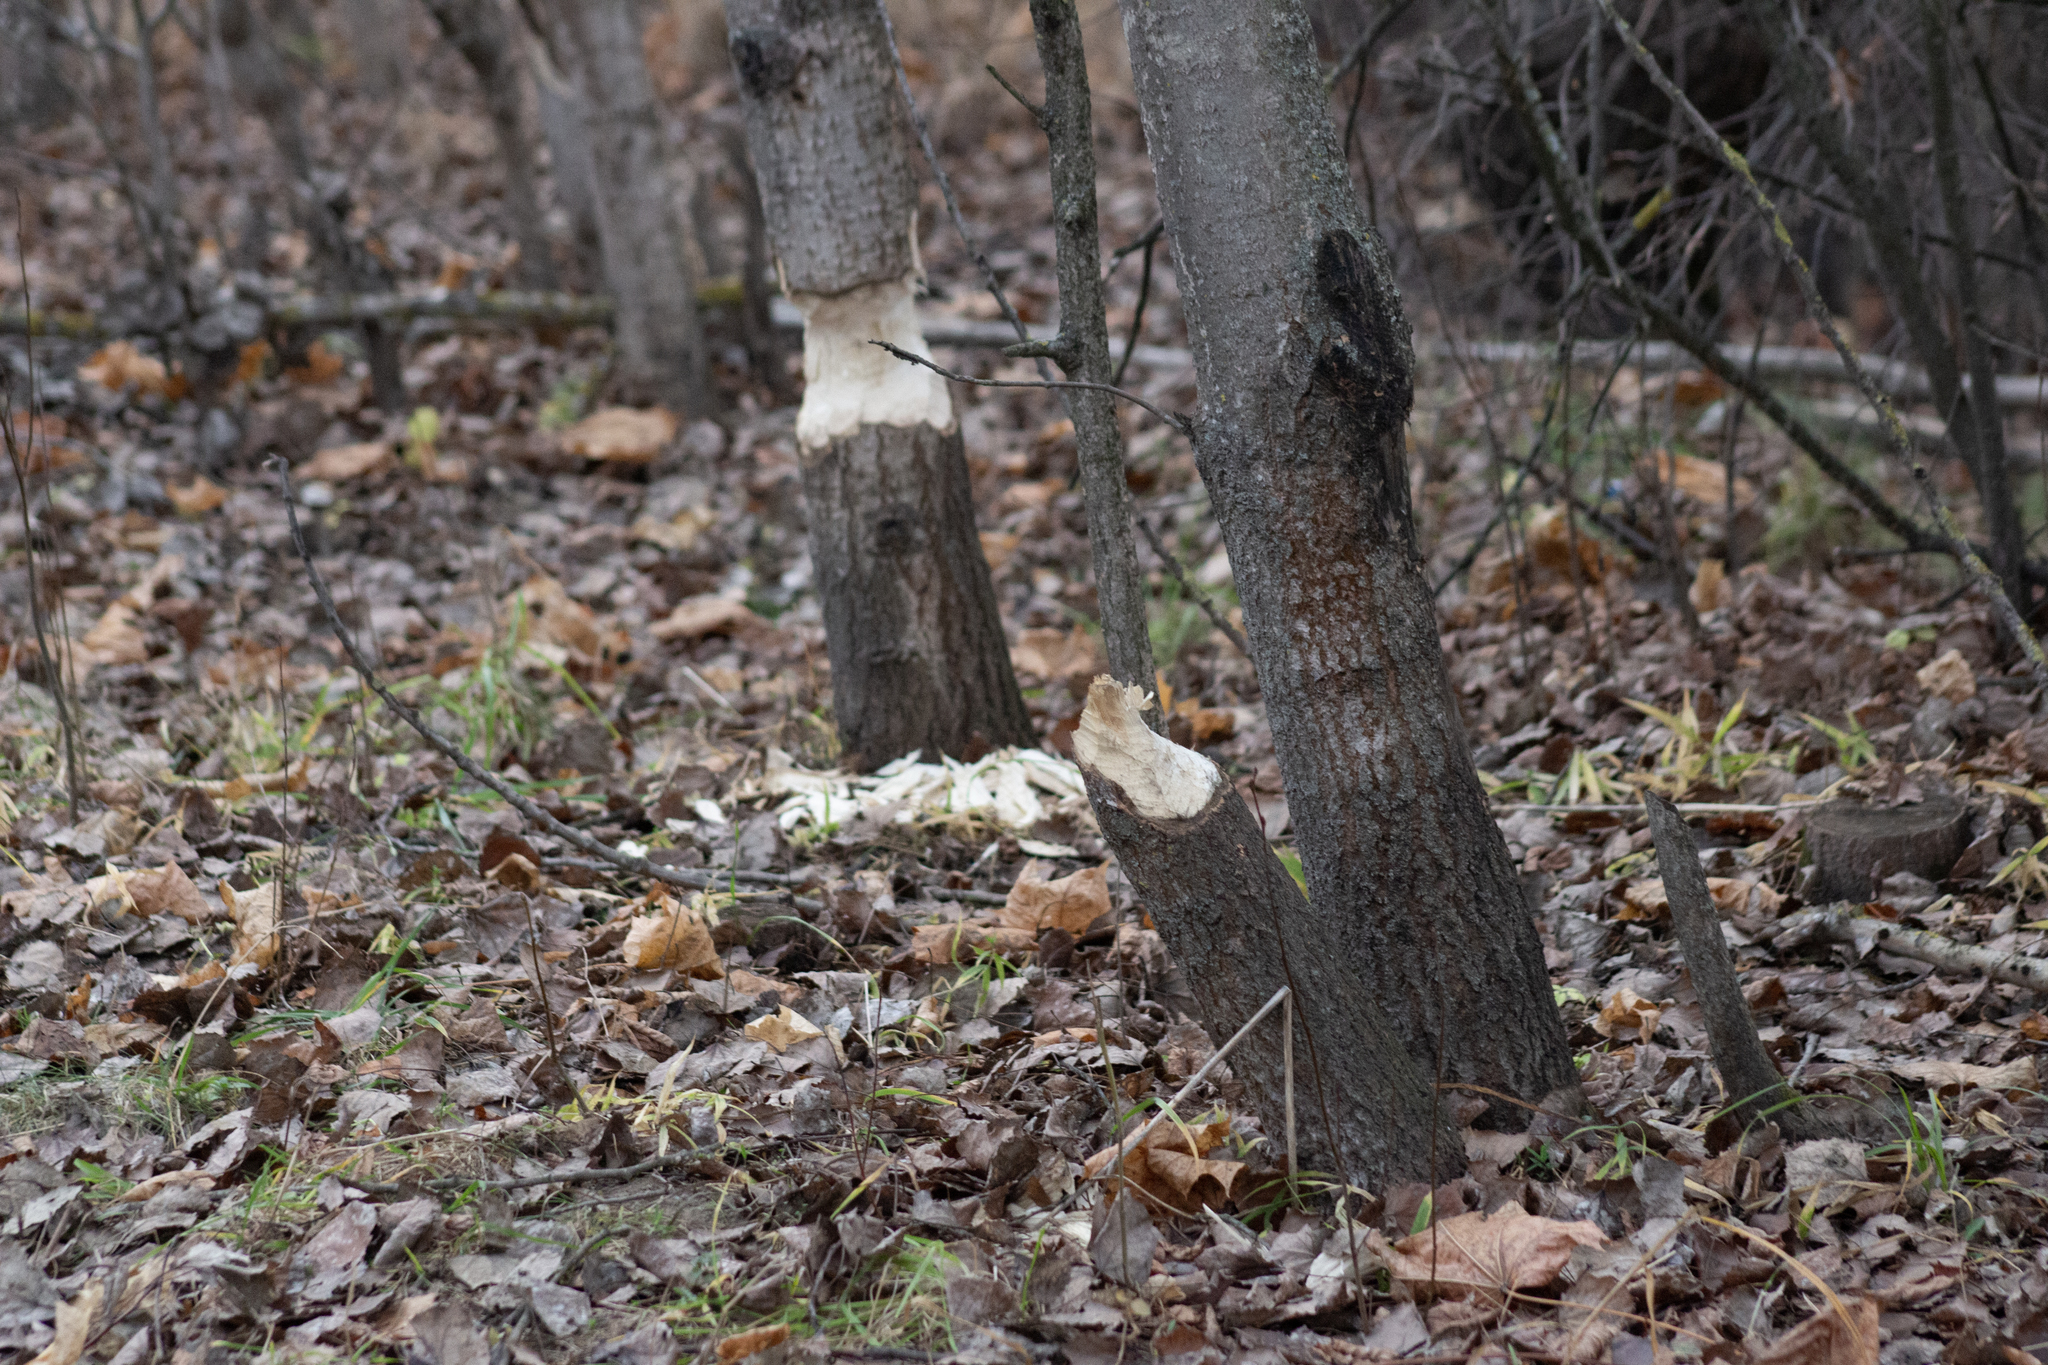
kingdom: Animalia
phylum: Chordata
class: Mammalia
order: Rodentia
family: Castoridae
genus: Castor
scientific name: Castor fiber
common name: Eurasian beaver
